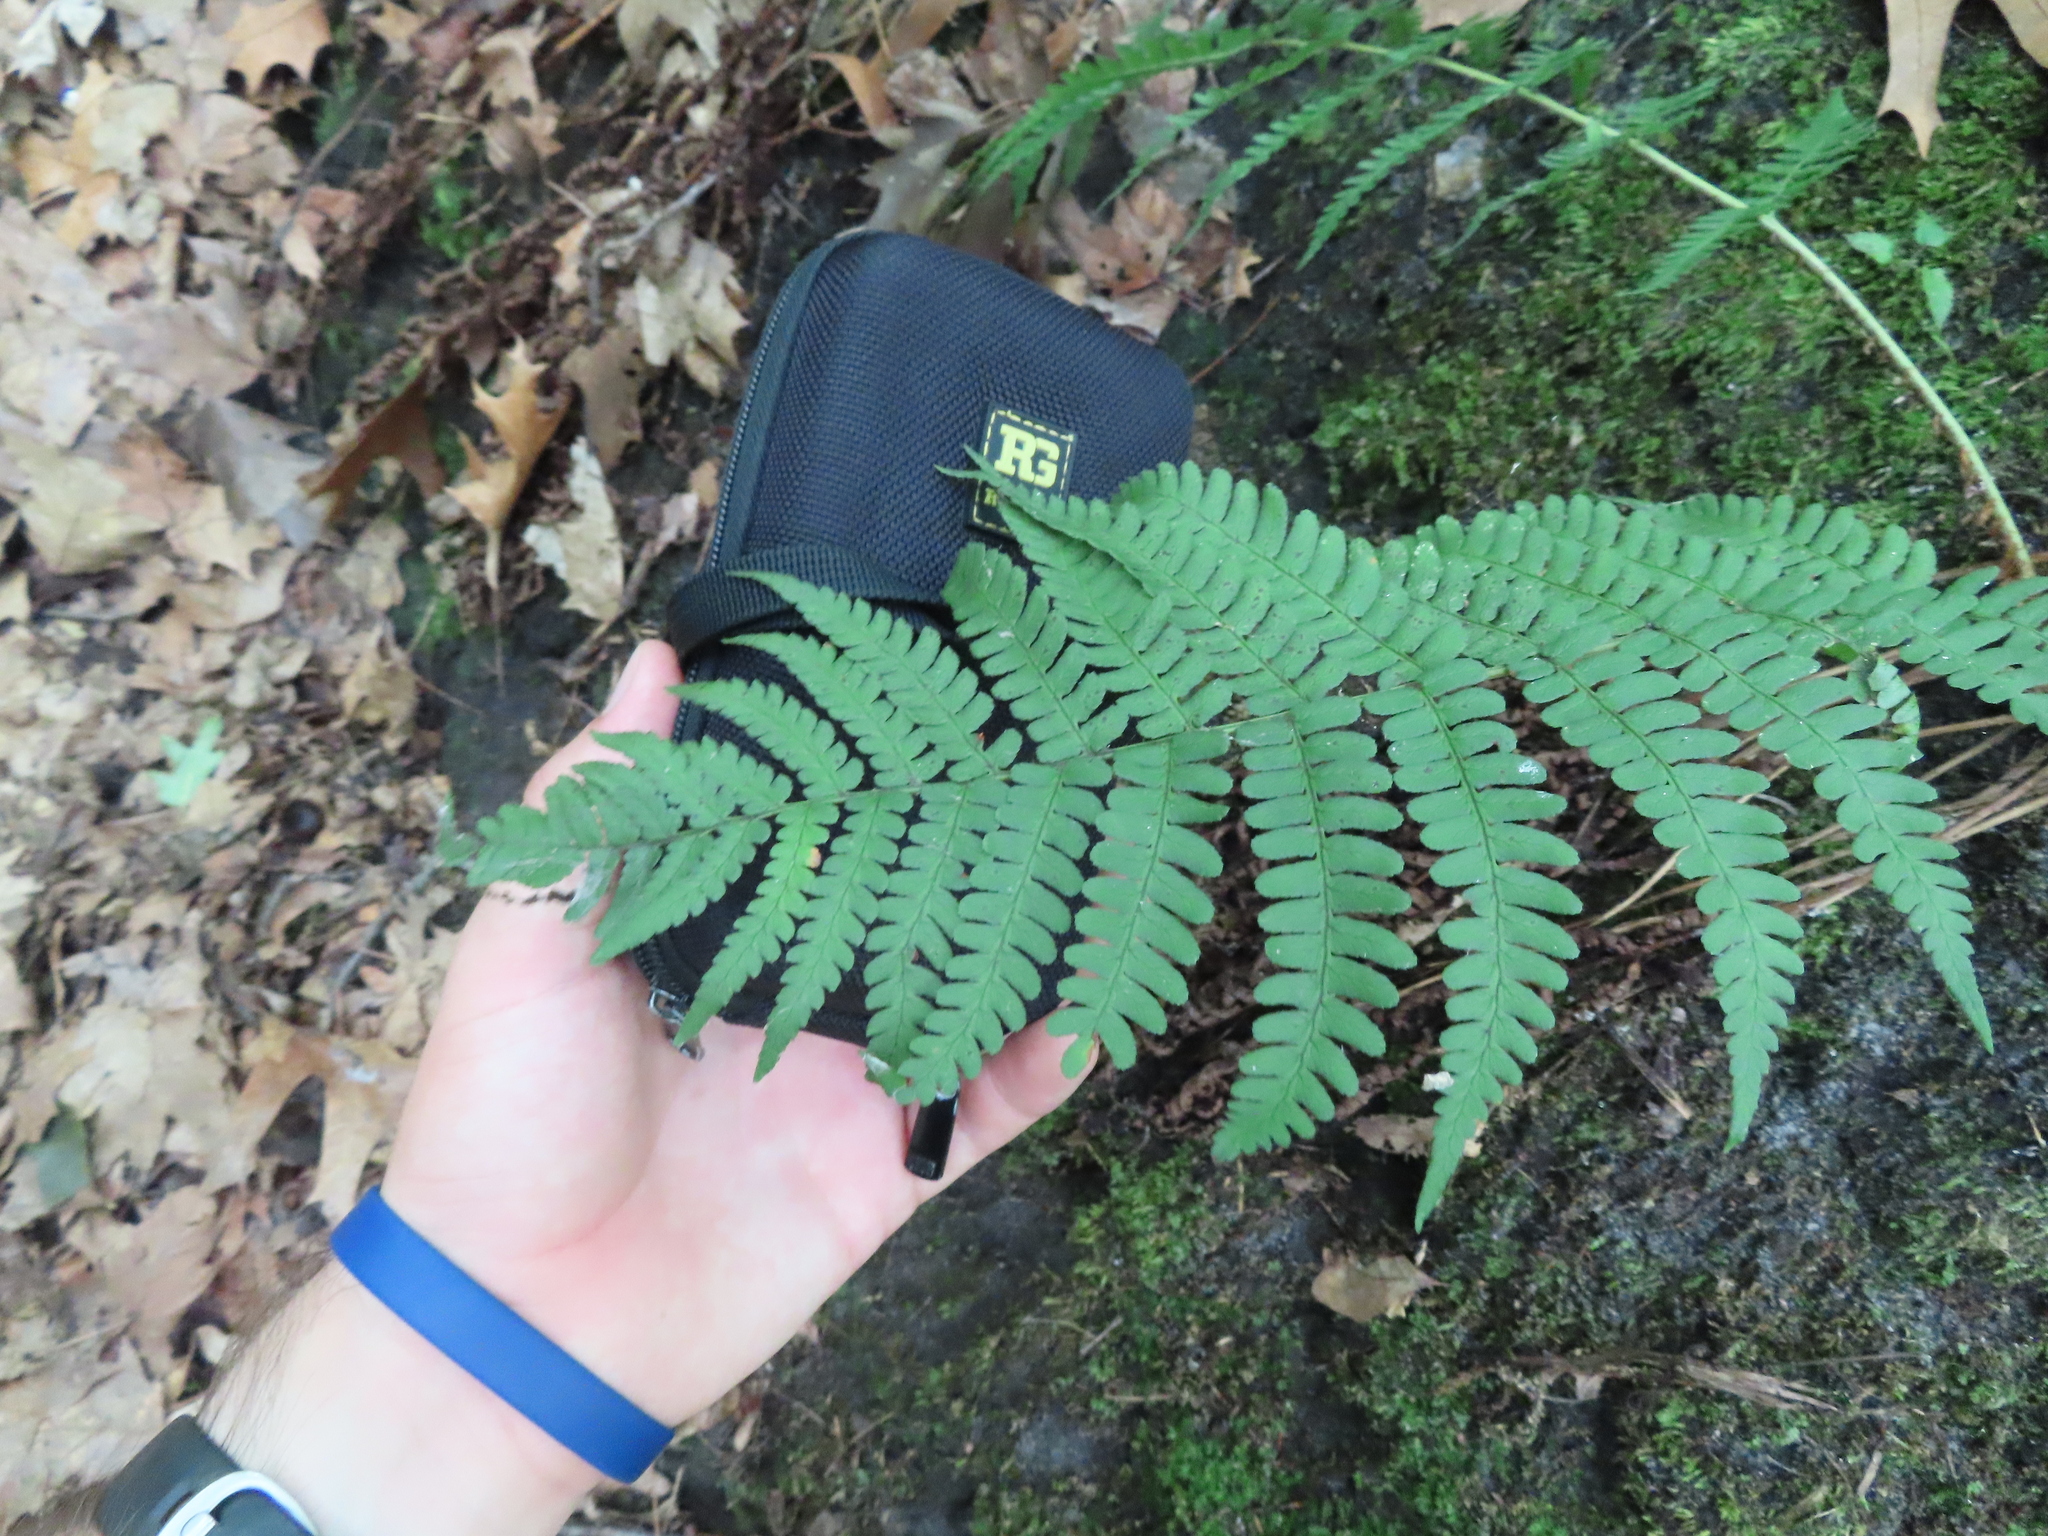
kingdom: Plantae
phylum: Tracheophyta
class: Polypodiopsida
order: Polypodiales
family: Dryopteridaceae
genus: Dryopteris
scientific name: Dryopteris marginalis
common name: Marginal wood fern
